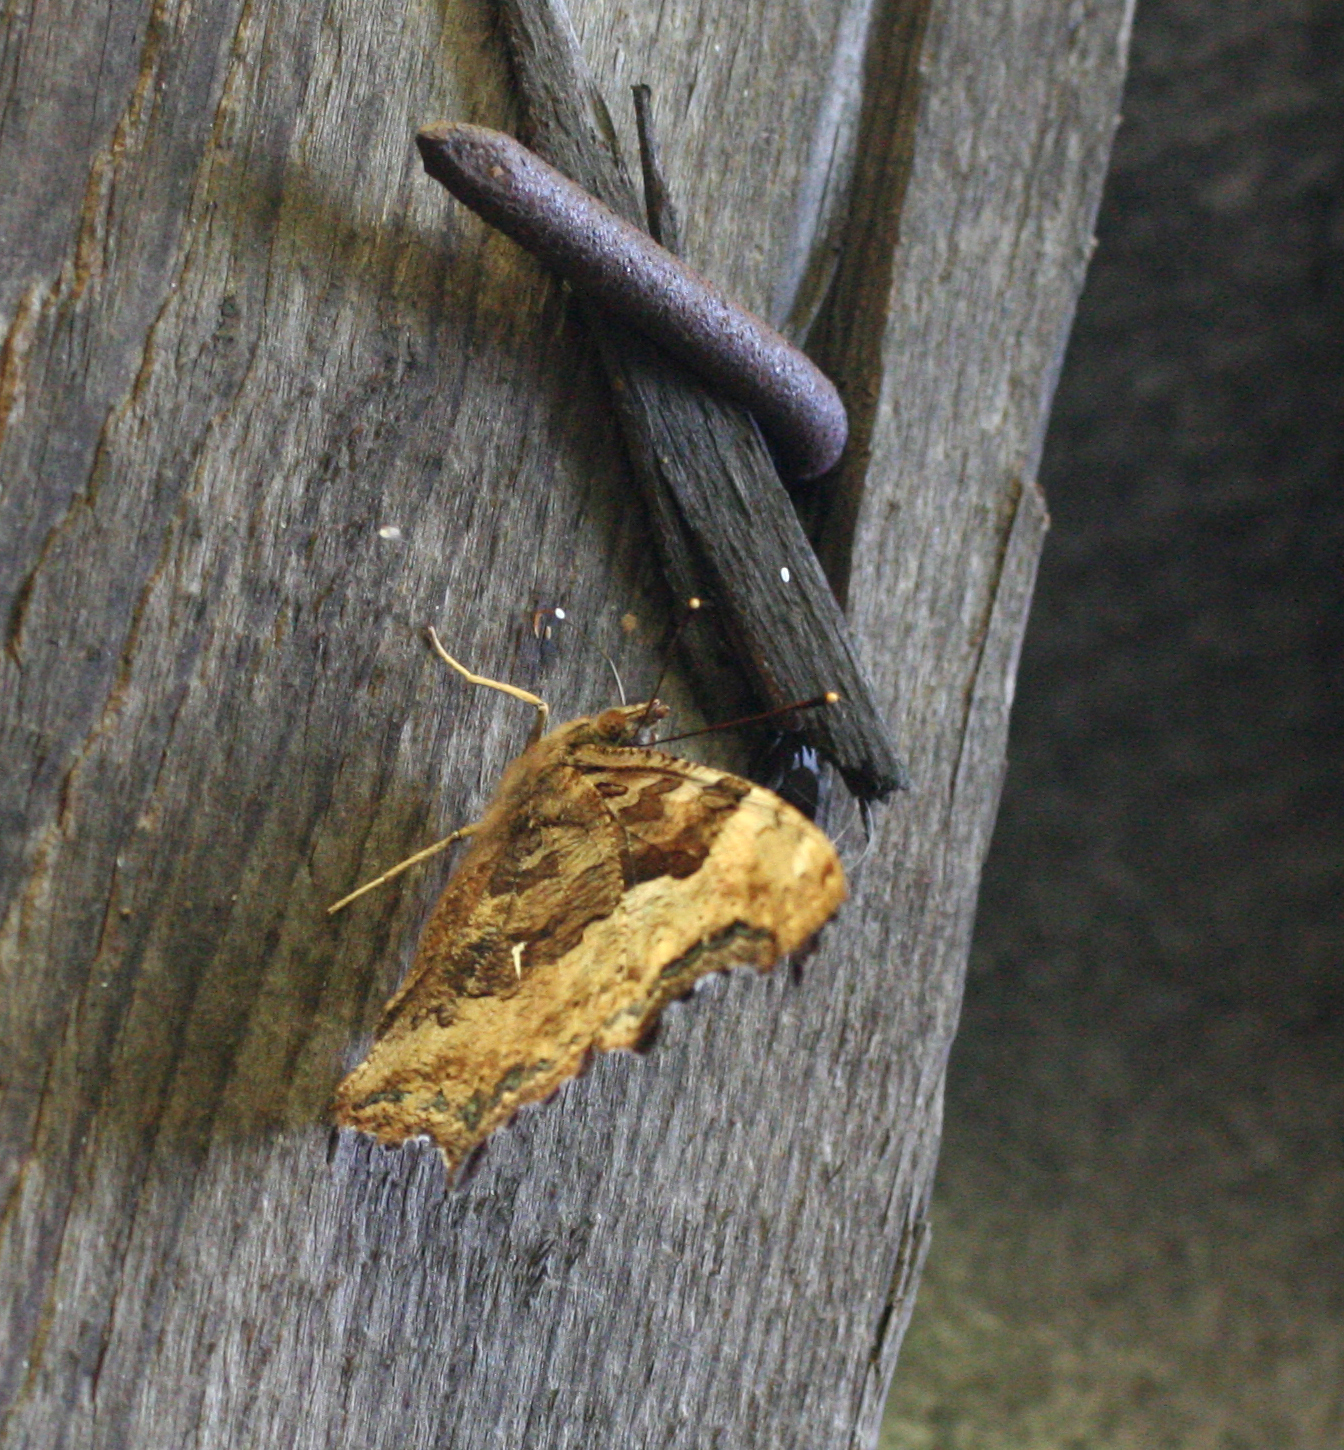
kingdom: Animalia
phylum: Arthropoda
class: Insecta
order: Lepidoptera
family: Nymphalidae
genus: Polygonia
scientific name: Polygonia vaualbum
